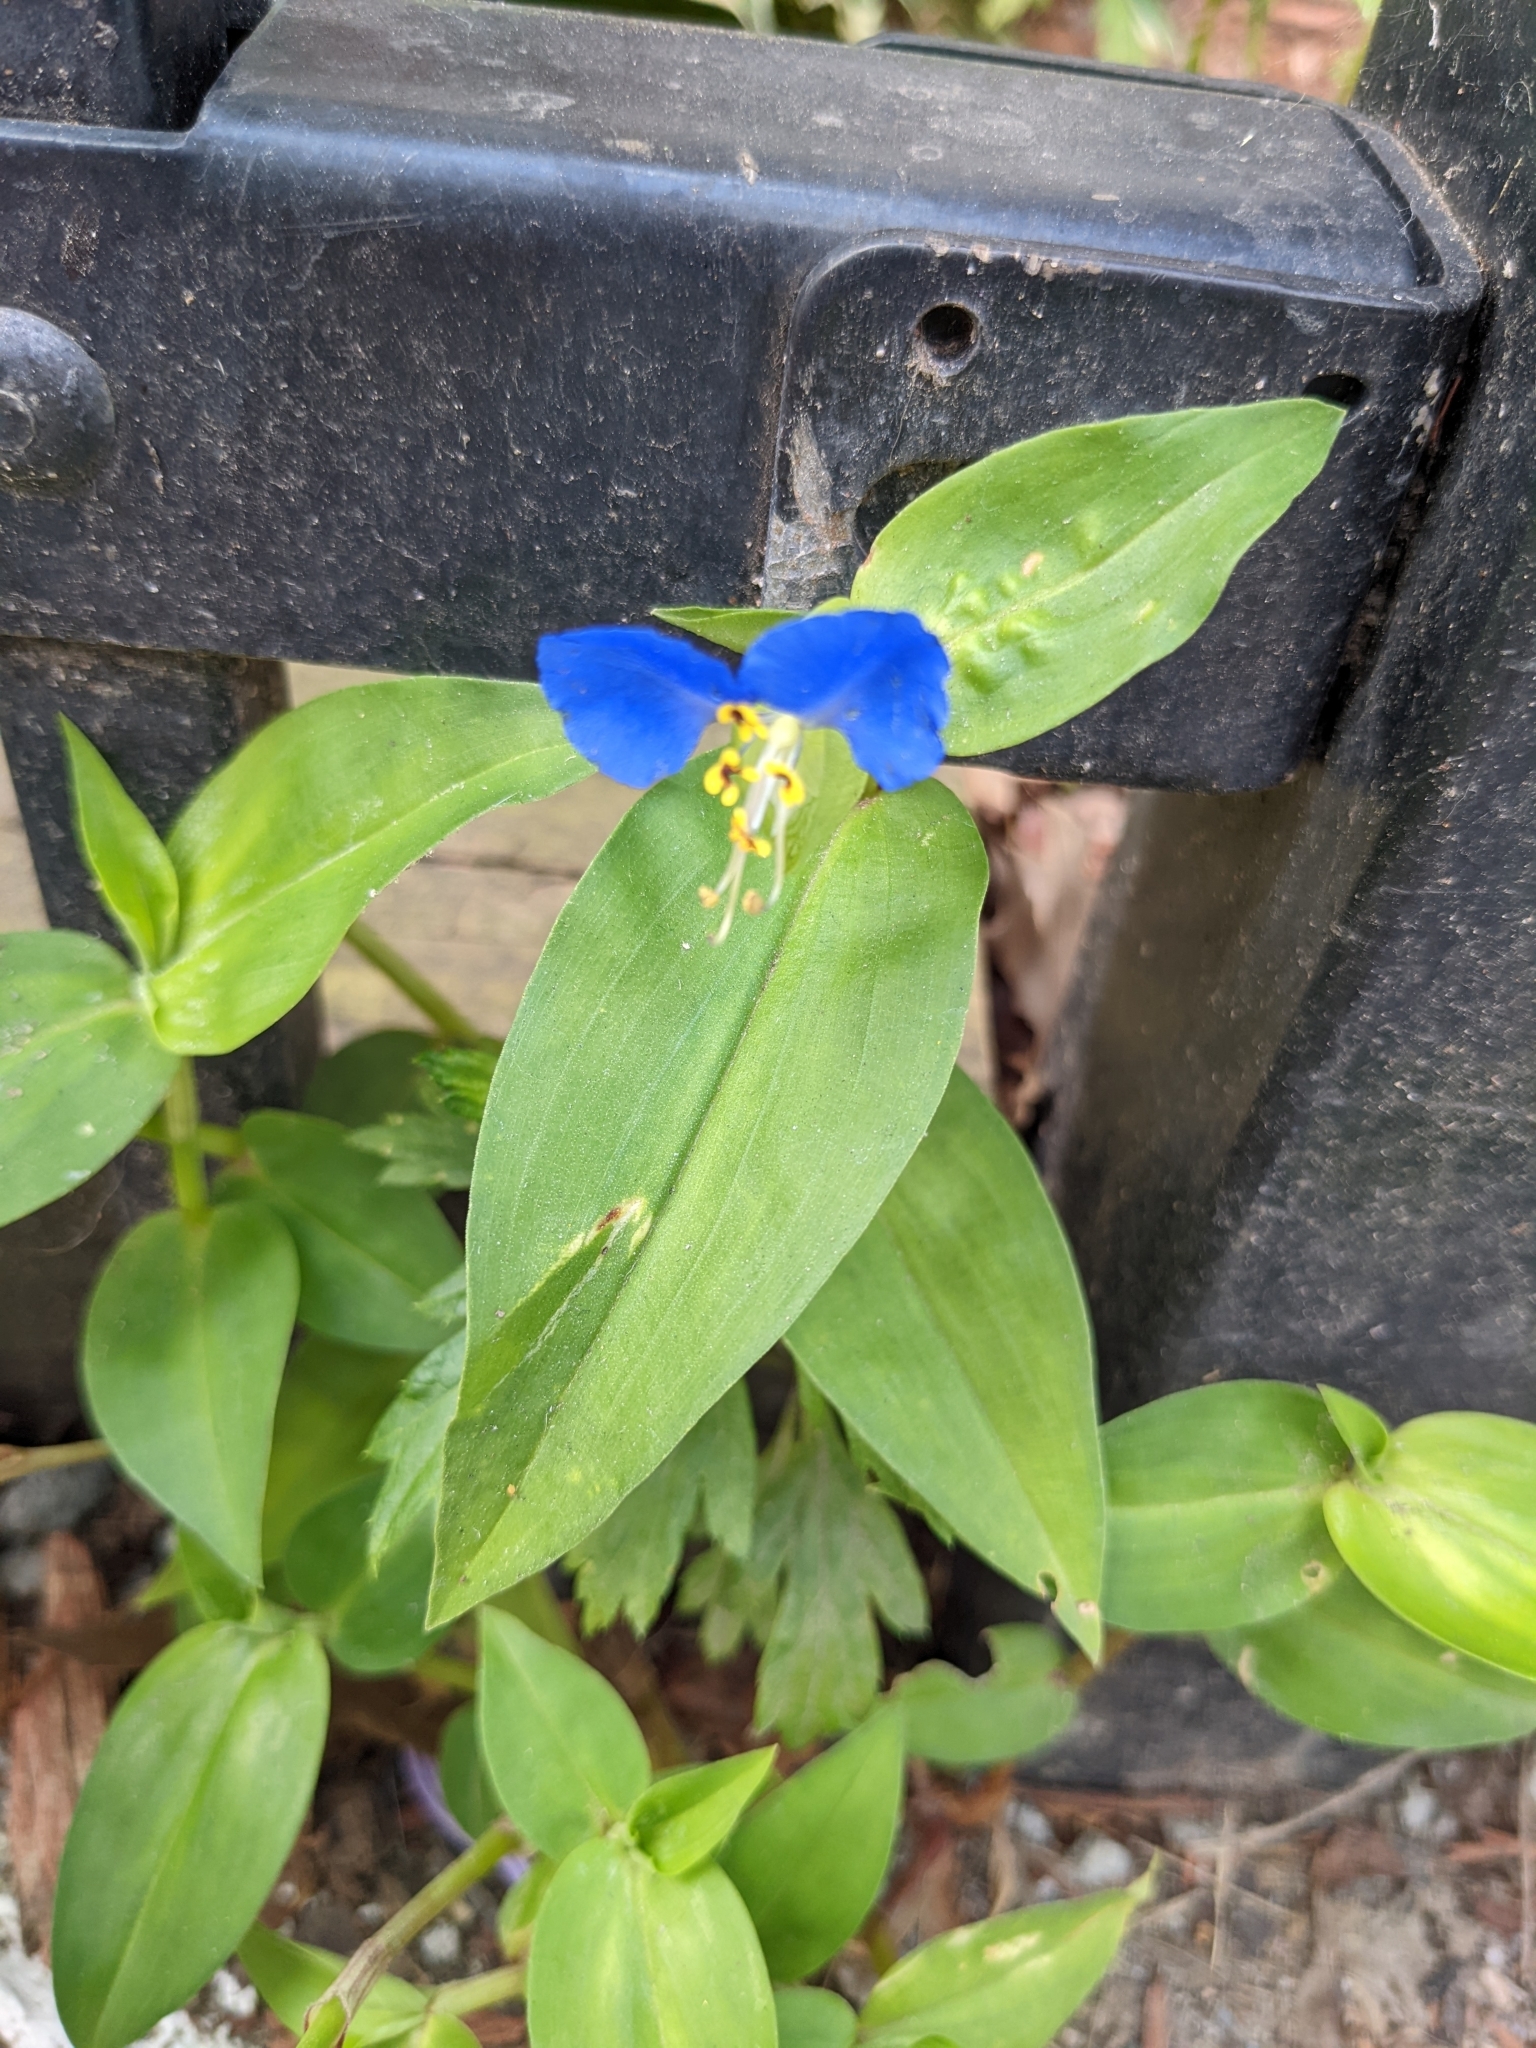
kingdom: Plantae
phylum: Tracheophyta
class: Liliopsida
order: Commelinales
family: Commelinaceae
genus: Commelina
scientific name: Commelina communis
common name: Asiatic dayflower
